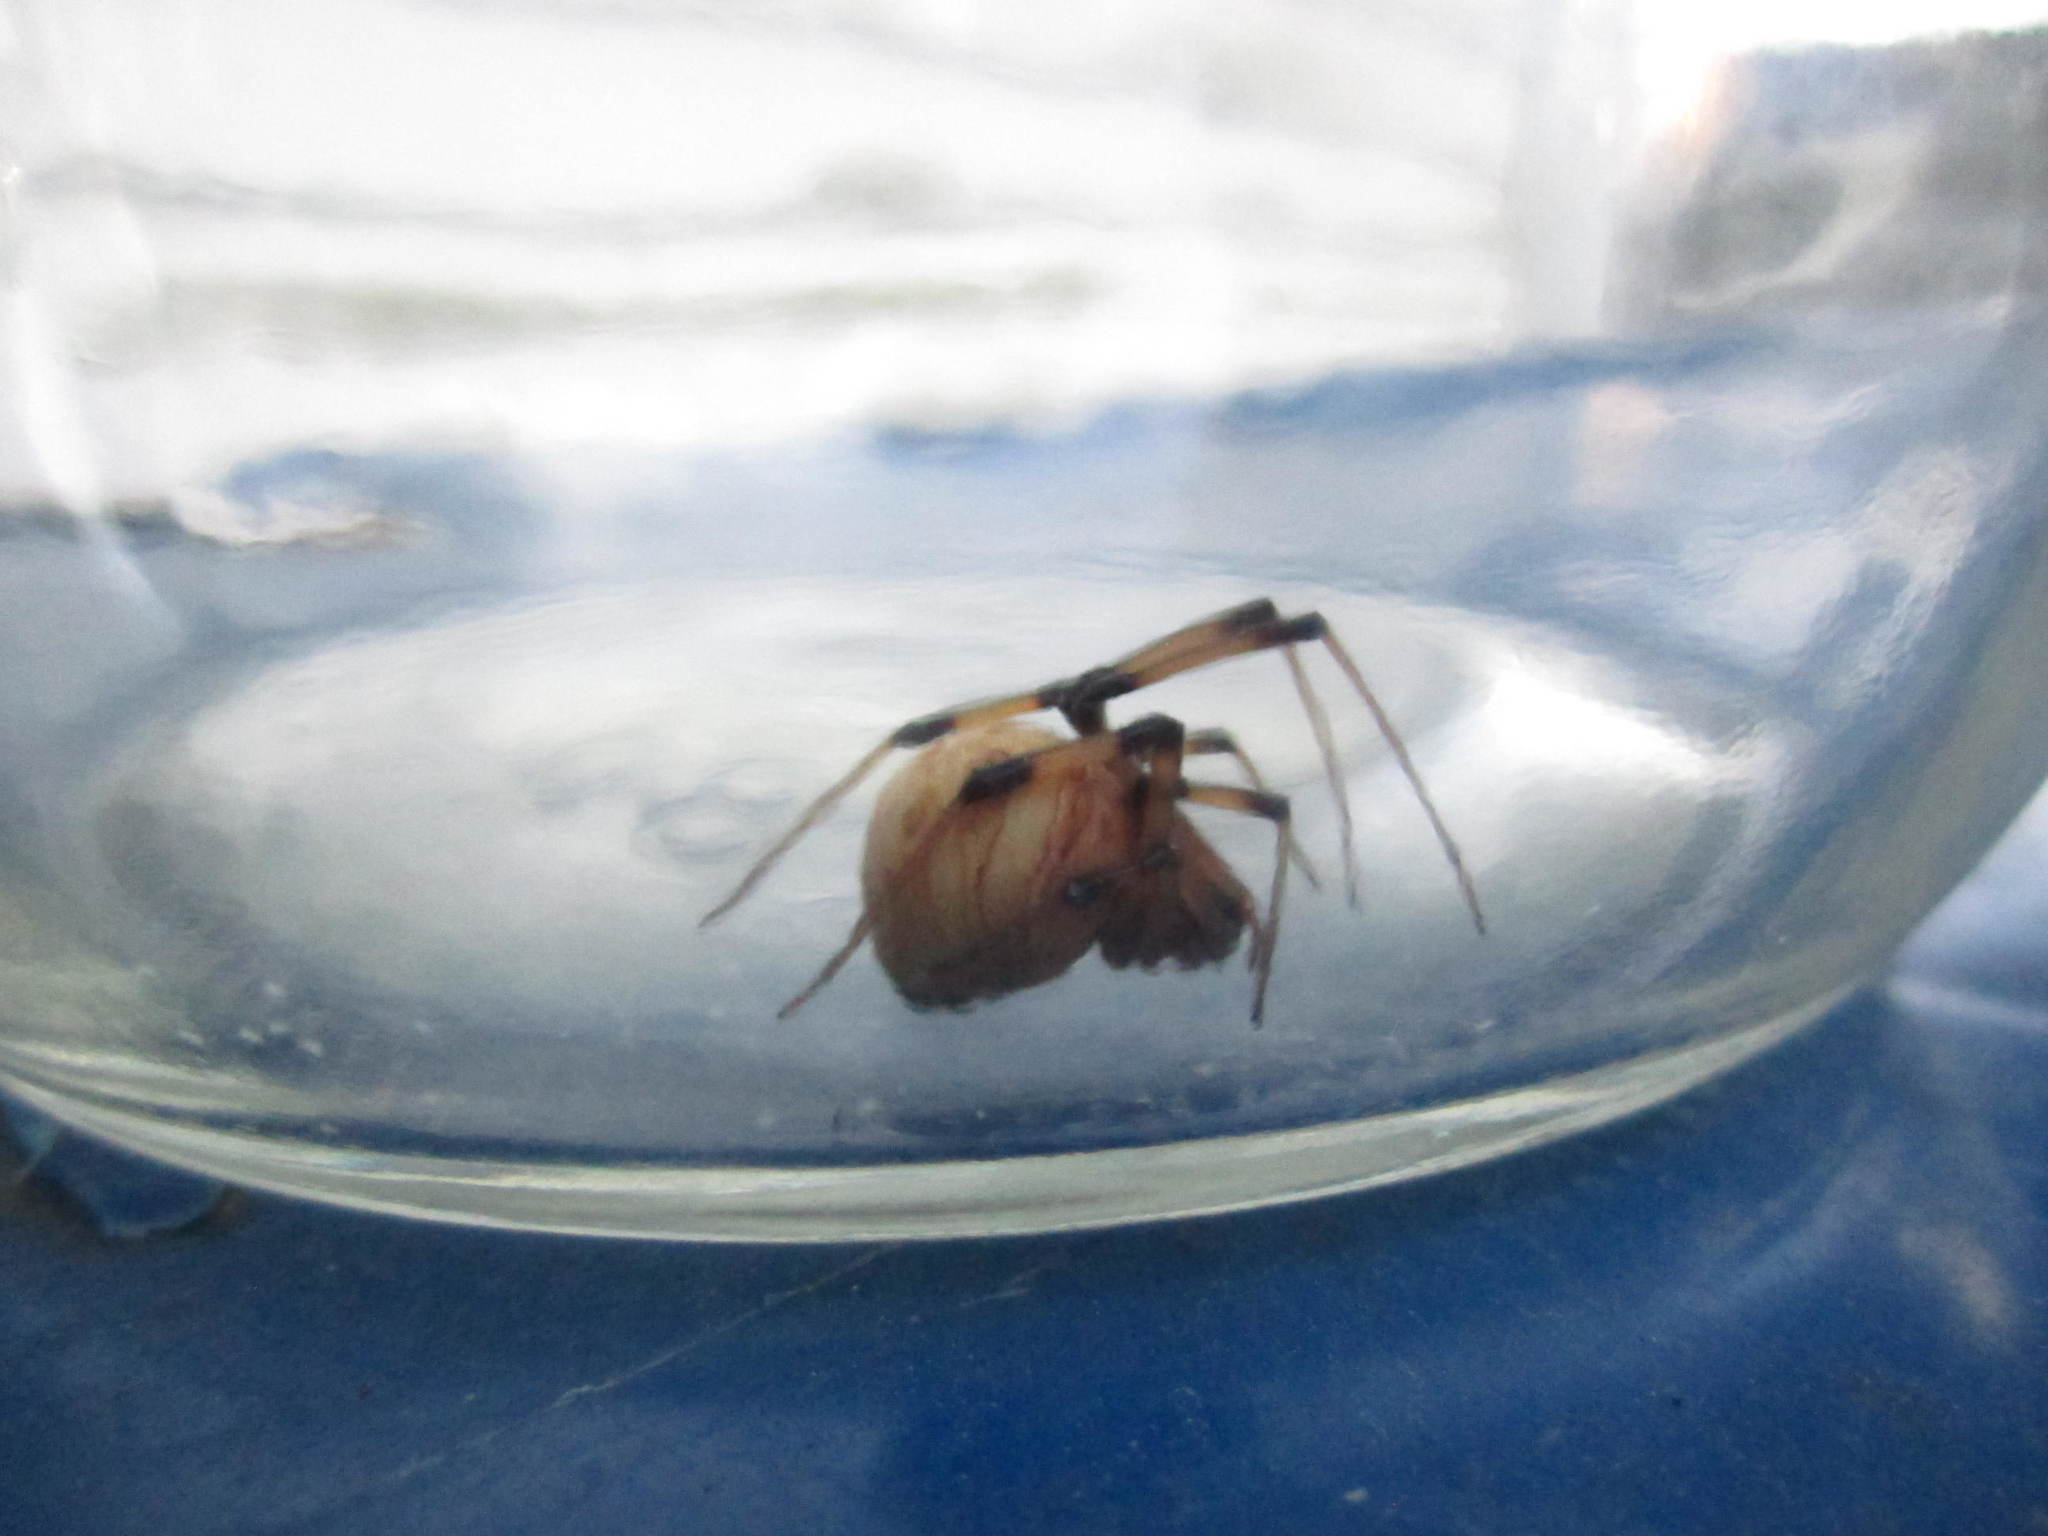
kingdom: Animalia
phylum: Arthropoda
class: Arachnida
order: Araneae
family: Theridiidae
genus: Latrodectus
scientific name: Latrodectus geometricus
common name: Brown widow spider
